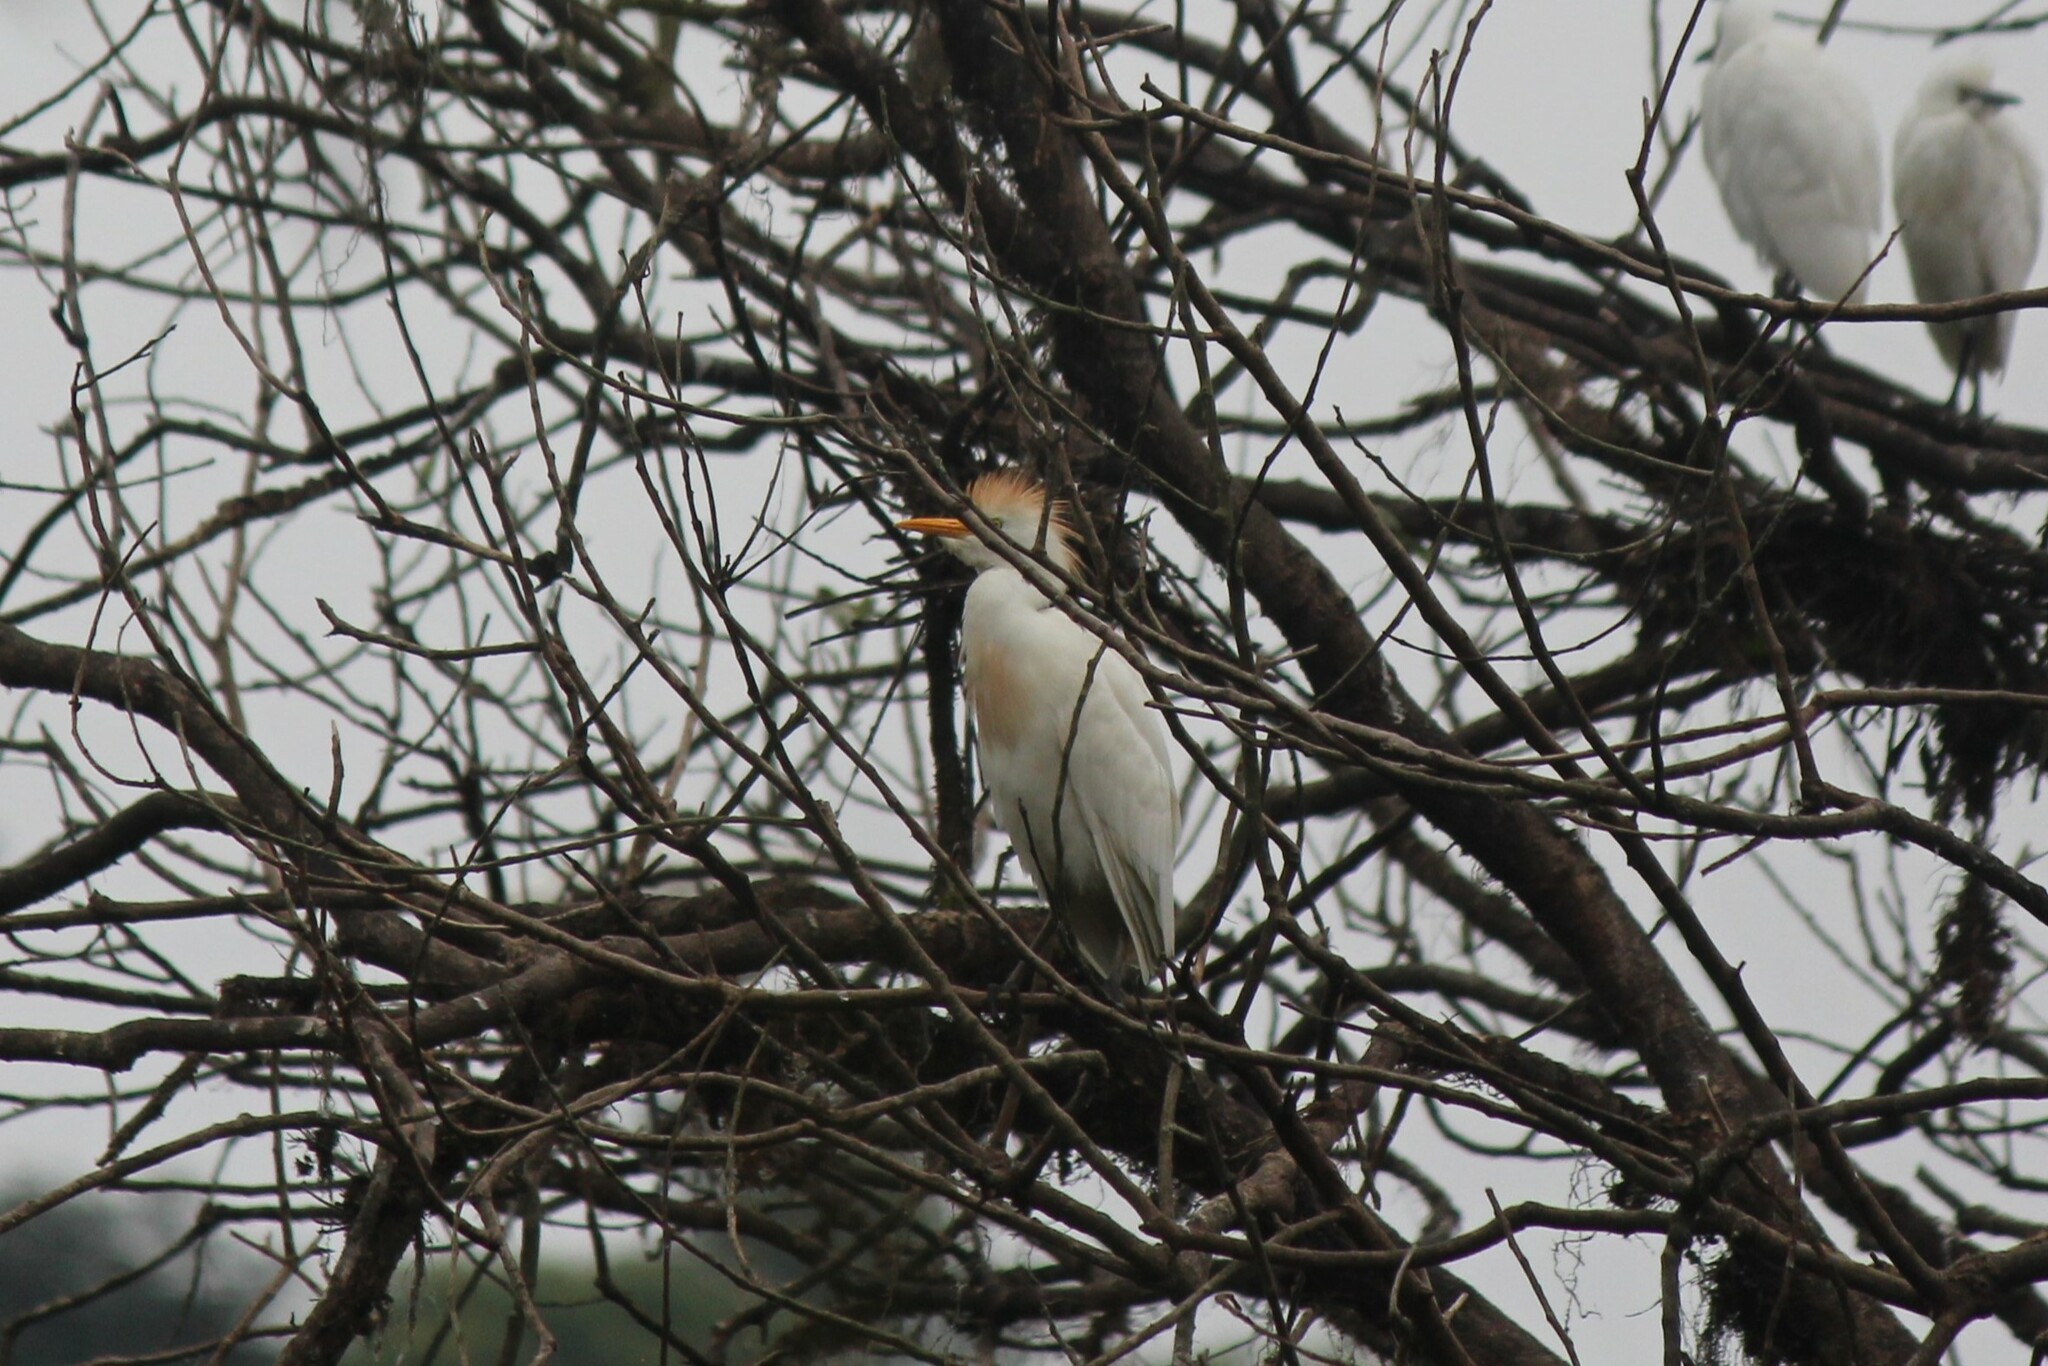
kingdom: Animalia
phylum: Chordata
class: Aves
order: Pelecaniformes
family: Ardeidae
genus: Bubulcus
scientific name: Bubulcus ibis
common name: Cattle egret
